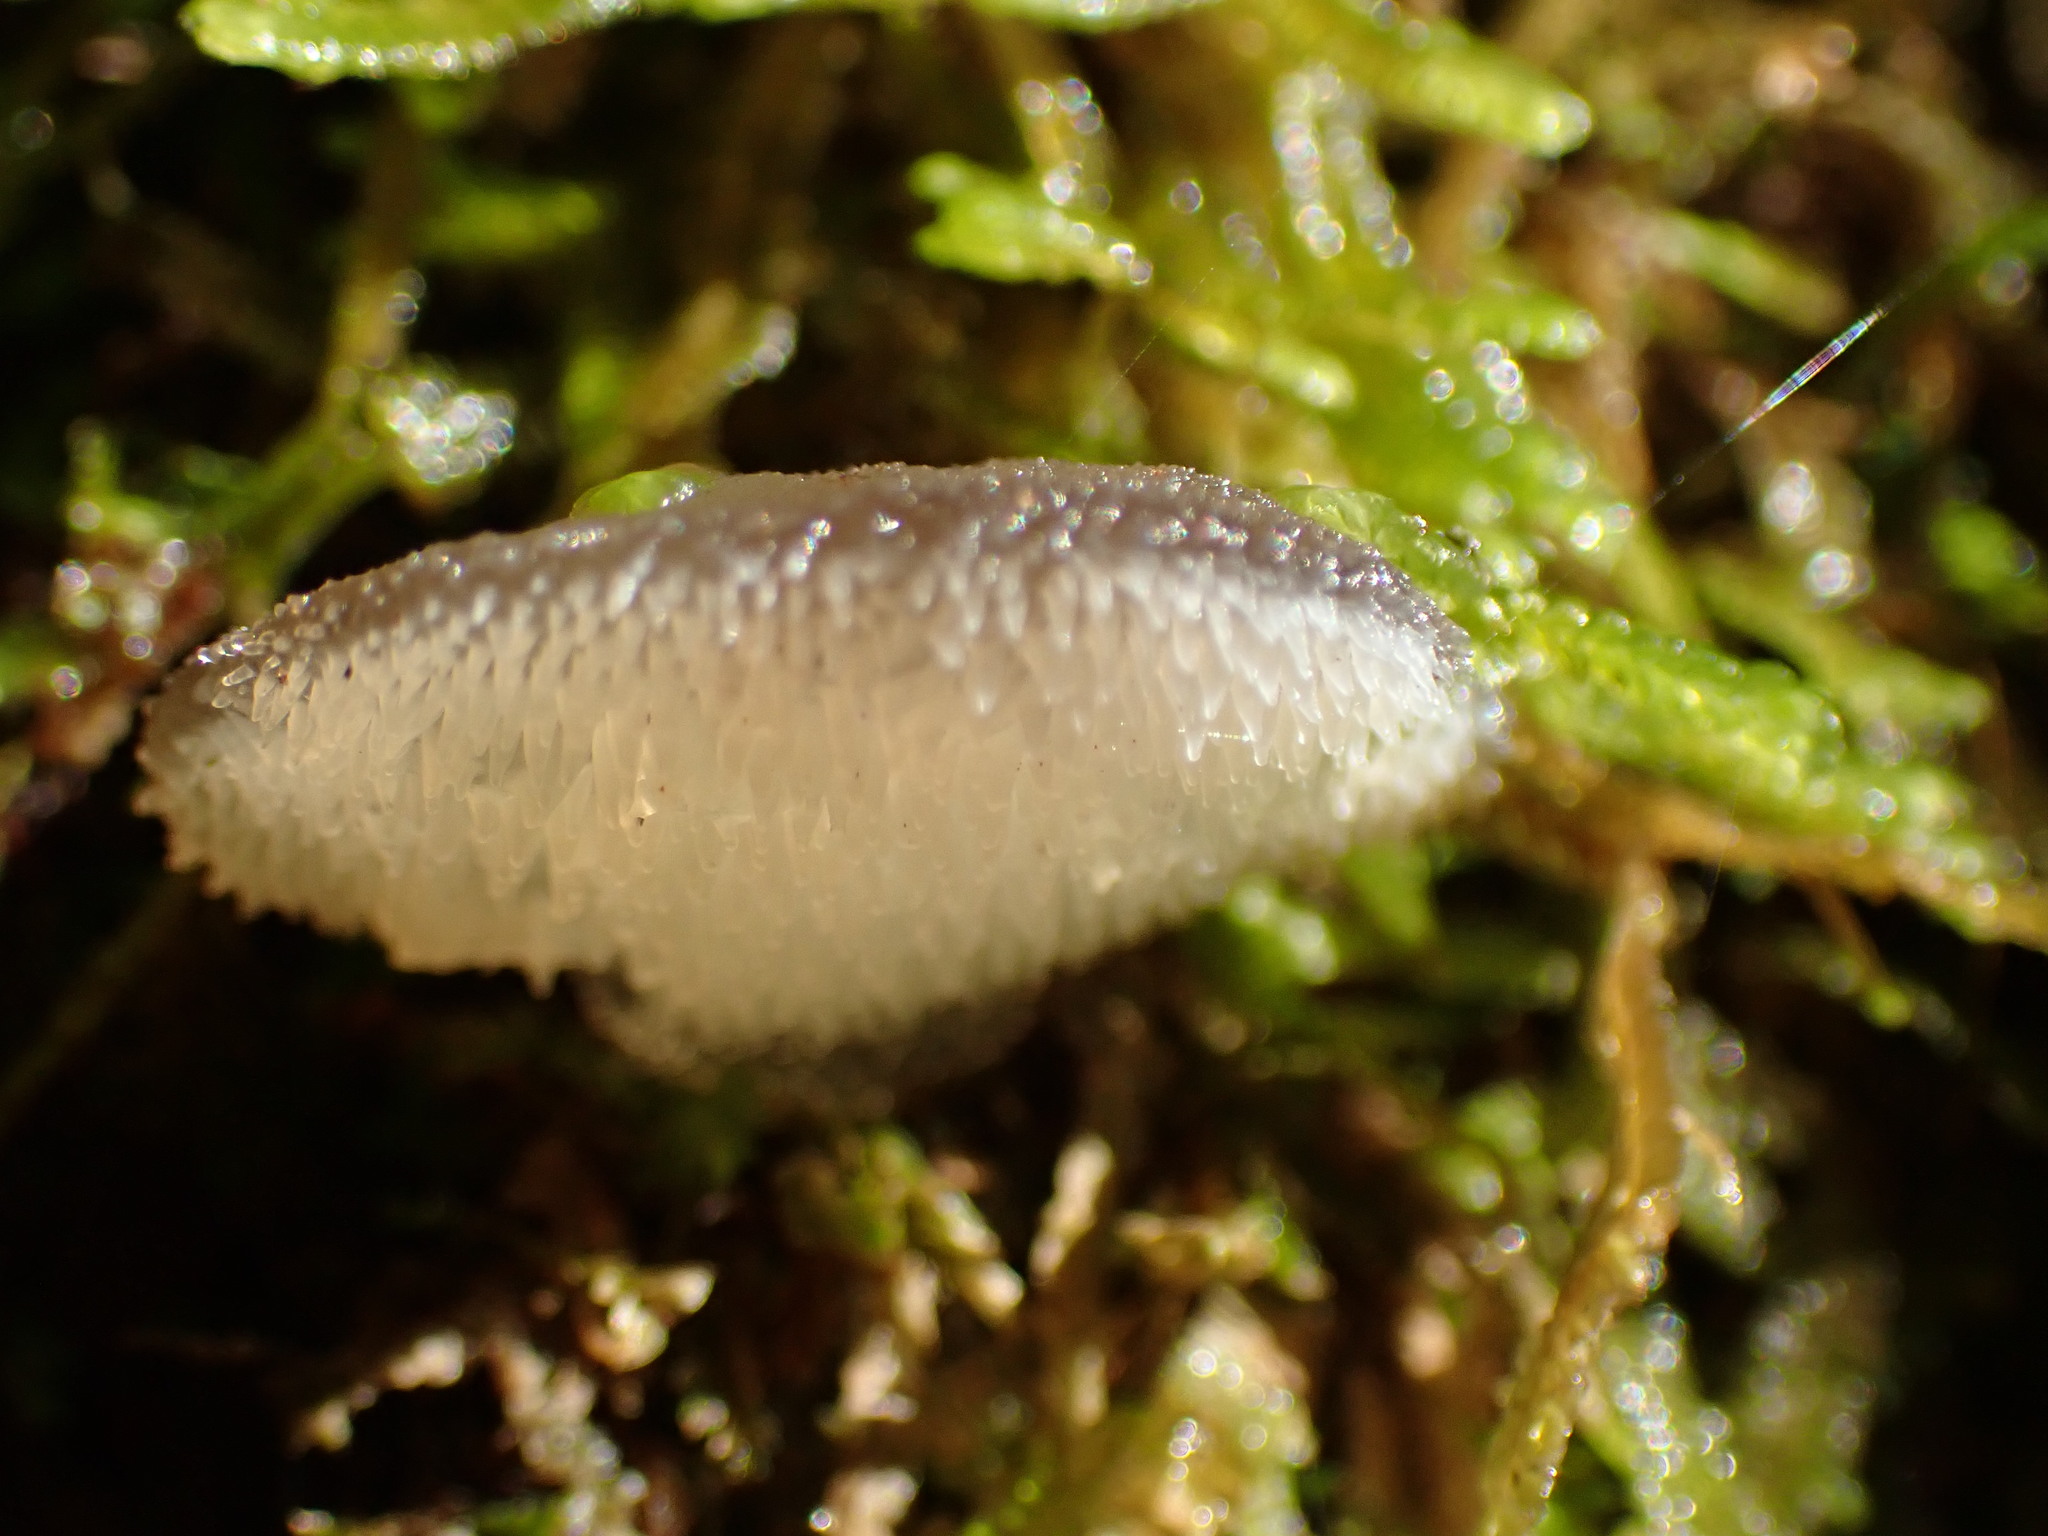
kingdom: Fungi
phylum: Basidiomycota
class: Agaricomycetes
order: Auriculariales
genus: Pseudohydnum
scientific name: Pseudohydnum gelatinosum
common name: Jelly tongue
